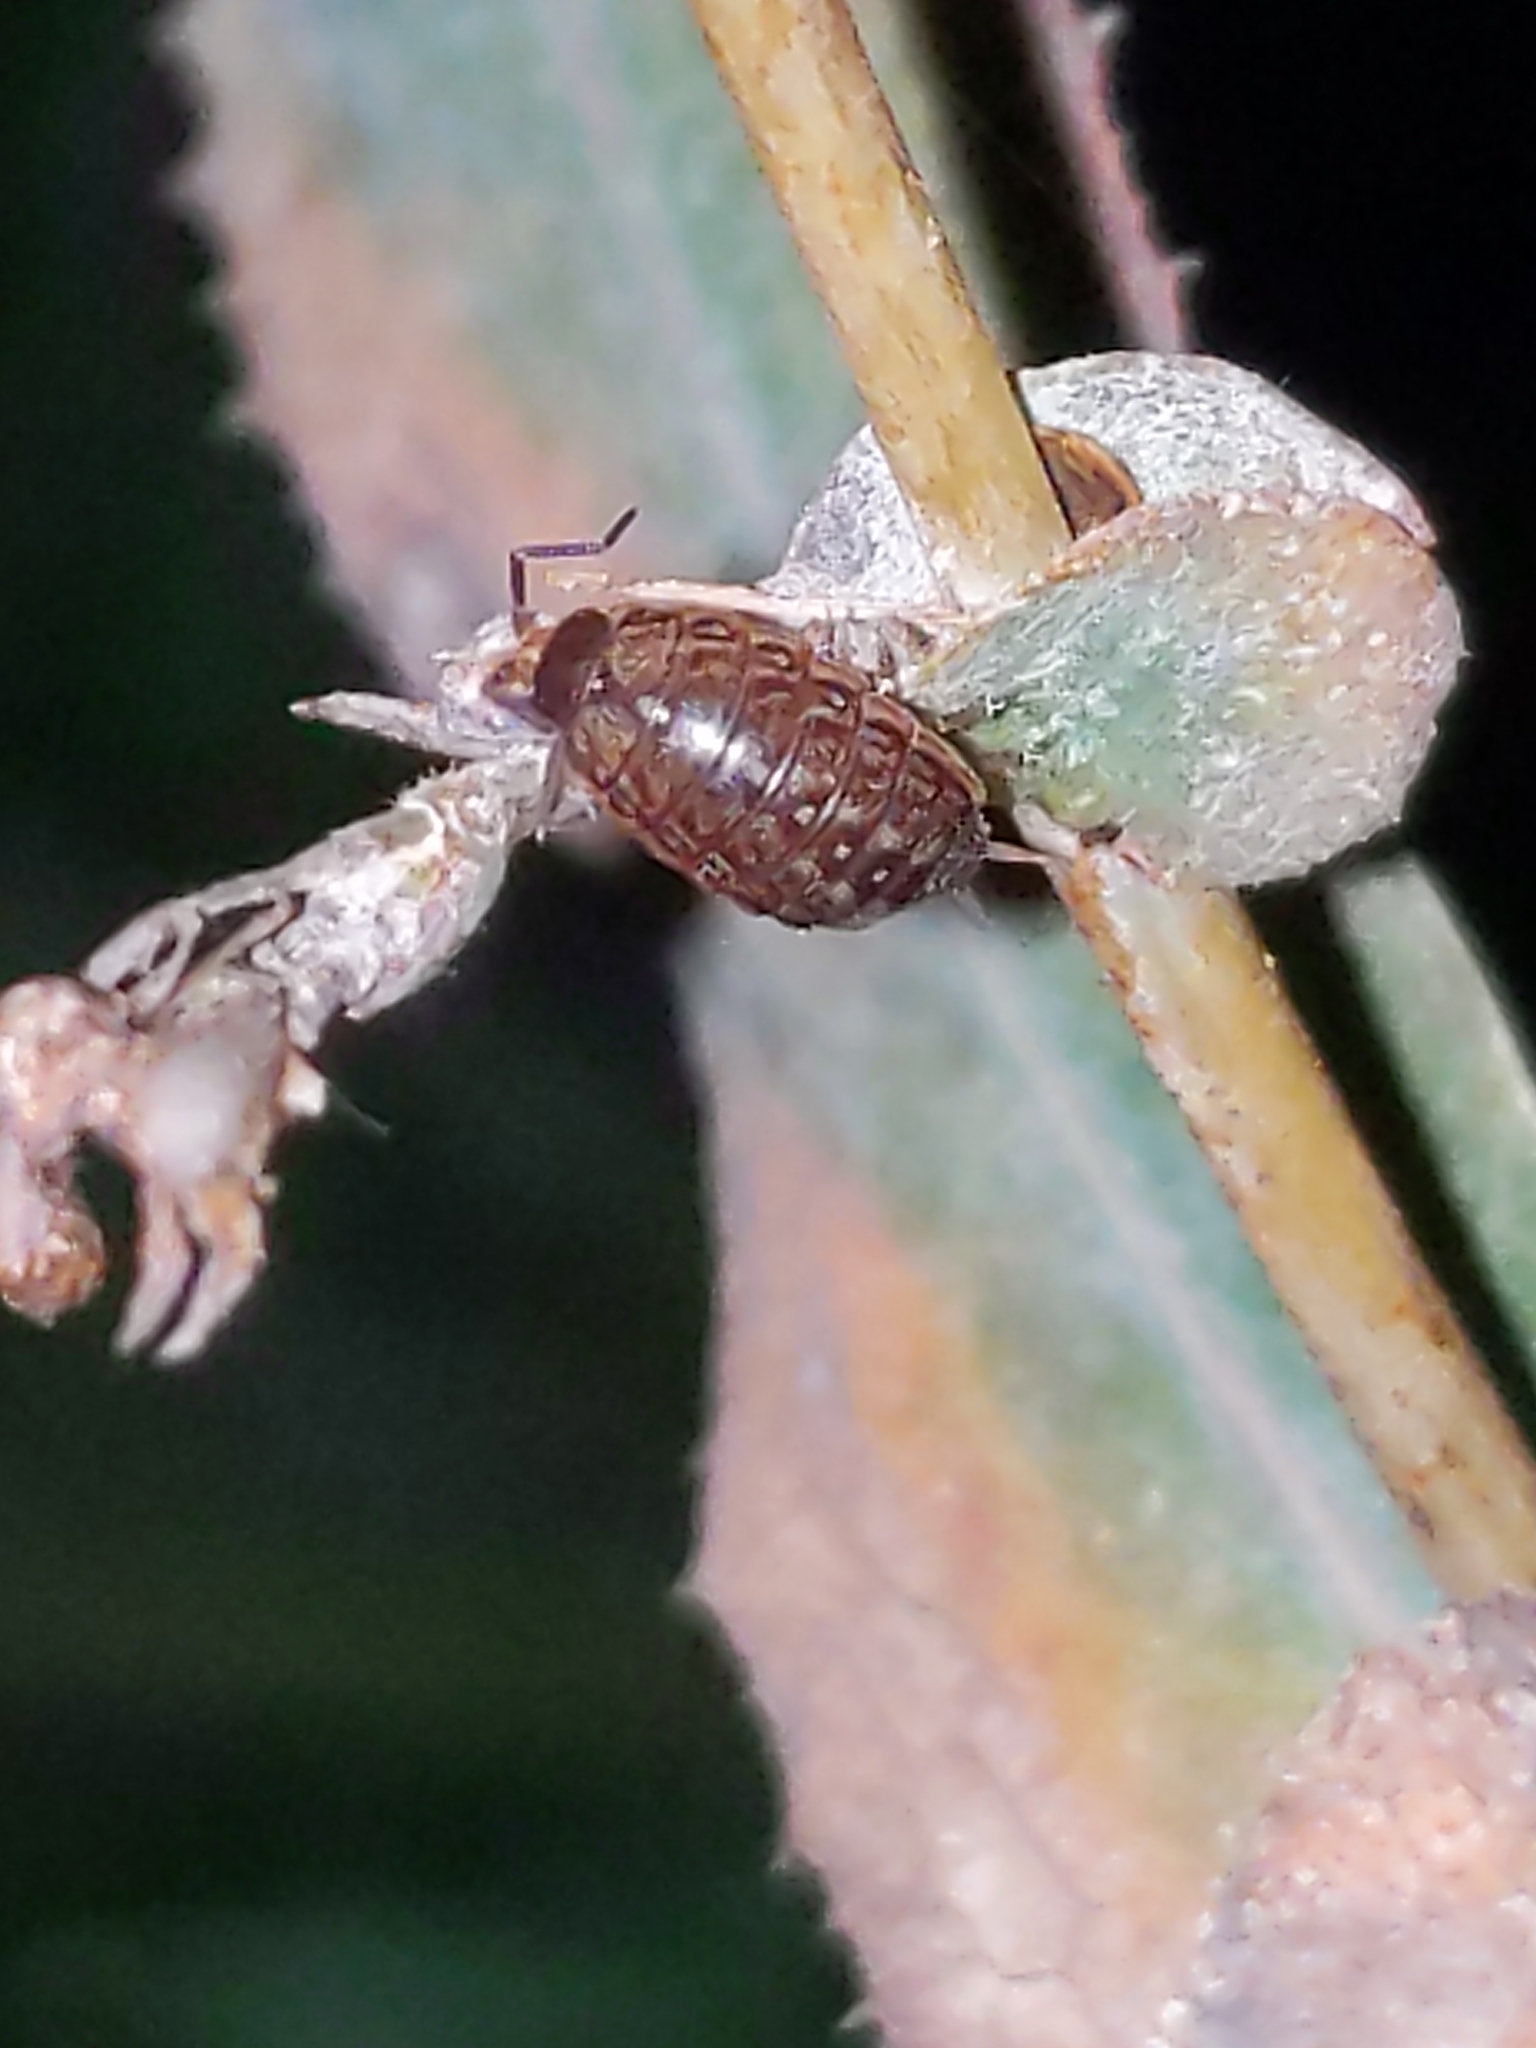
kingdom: Animalia
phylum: Arthropoda
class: Malacostraca
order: Isopoda
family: Philosciidae
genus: Philoscia
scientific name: Philoscia muscorum
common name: Common striped woodlouse
